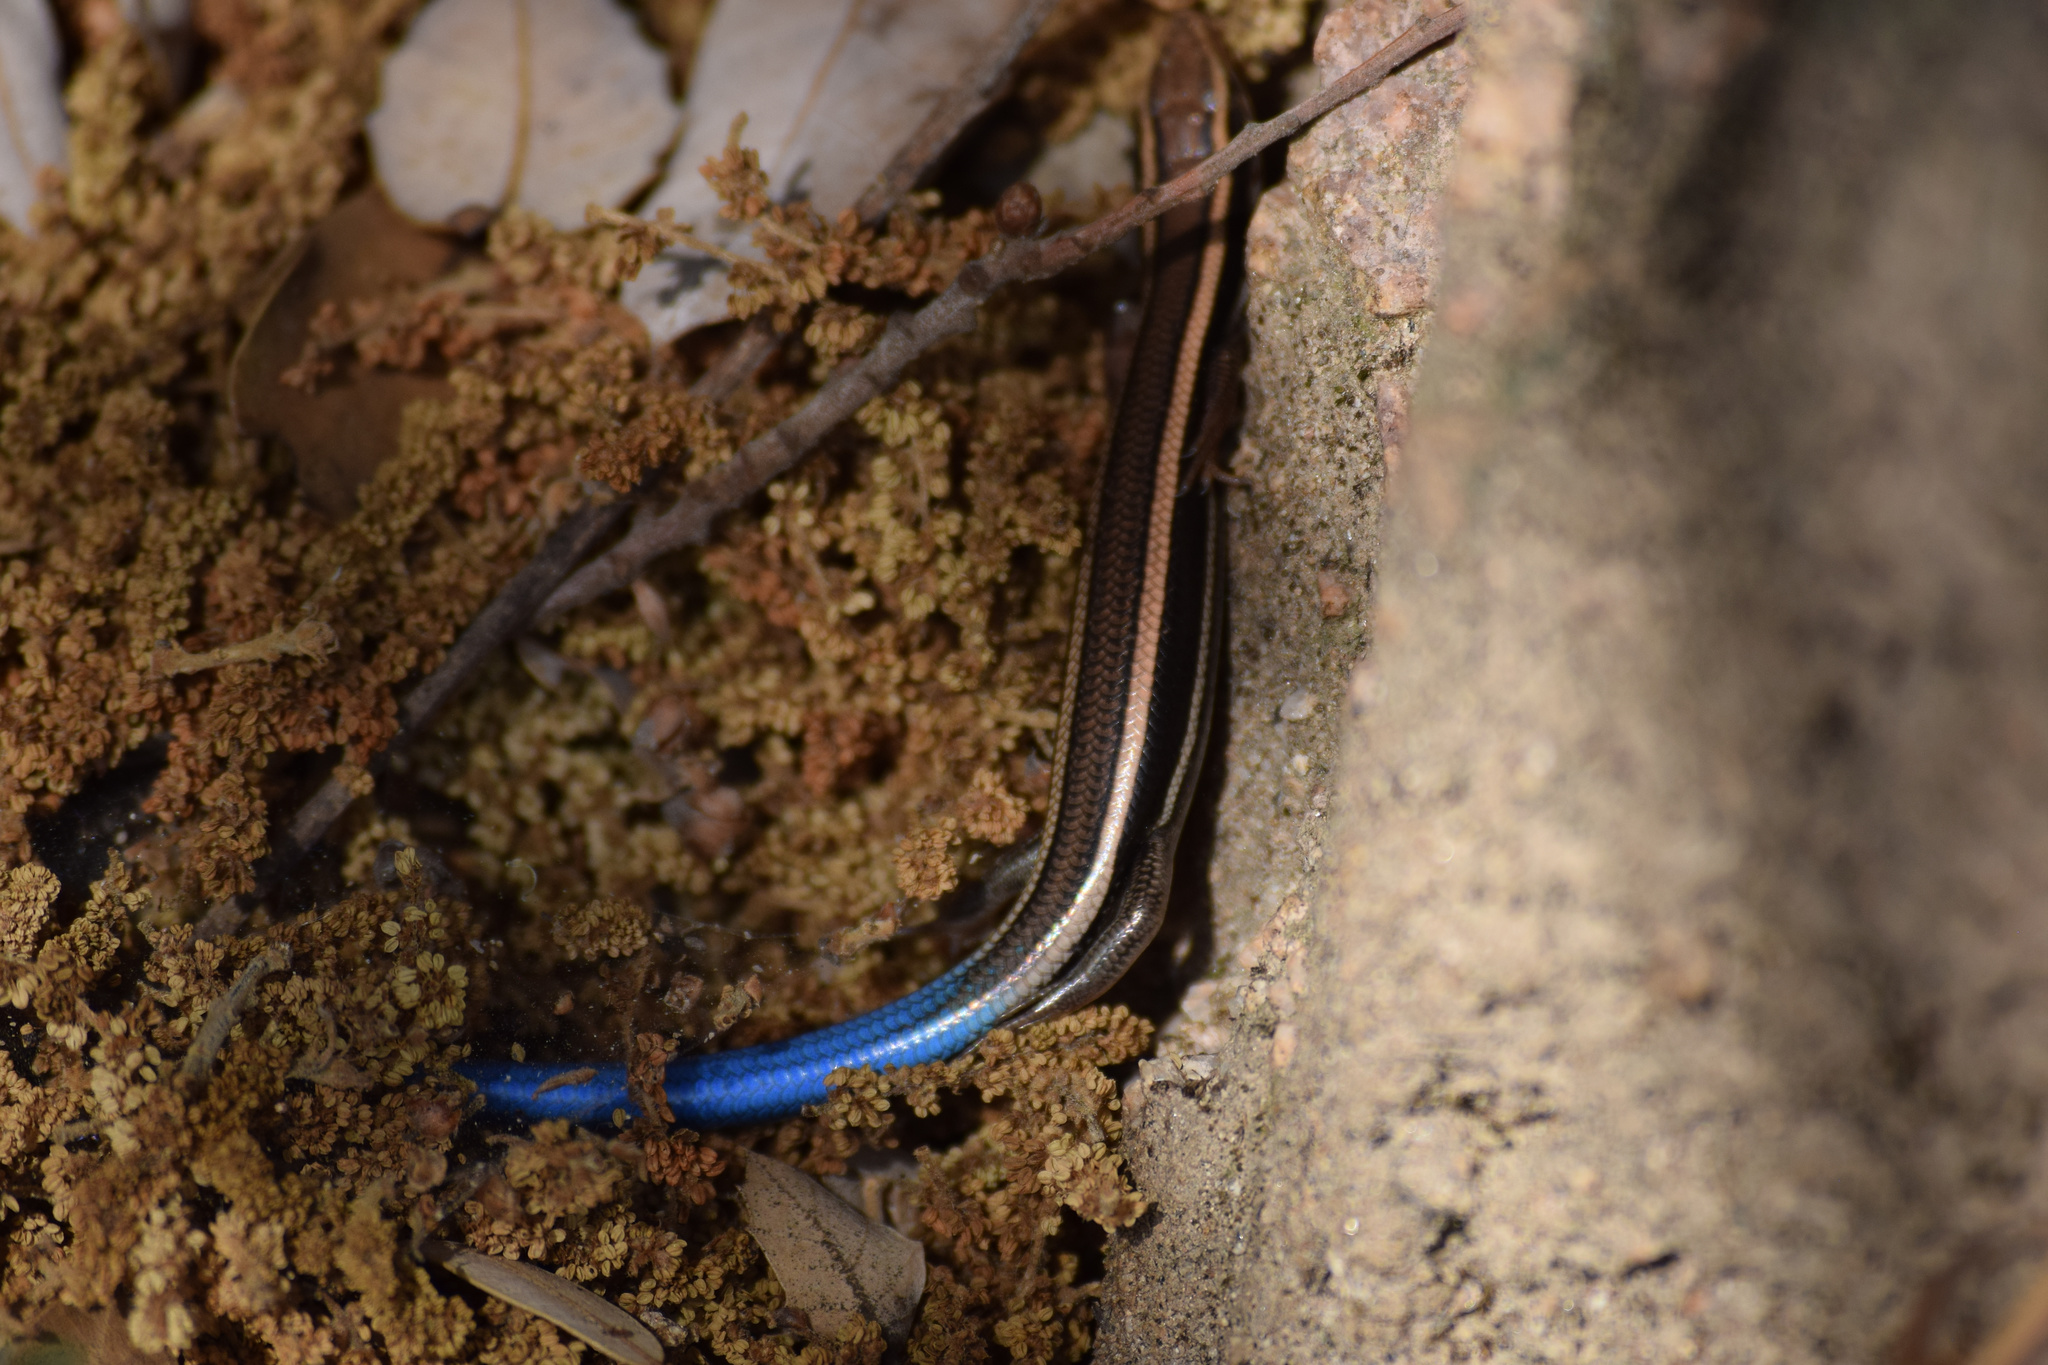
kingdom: Animalia
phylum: Chordata
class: Squamata
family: Scincidae
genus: Plestiodon
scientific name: Plestiodon skiltonianus
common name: Coronado island skink [interparietalis]
